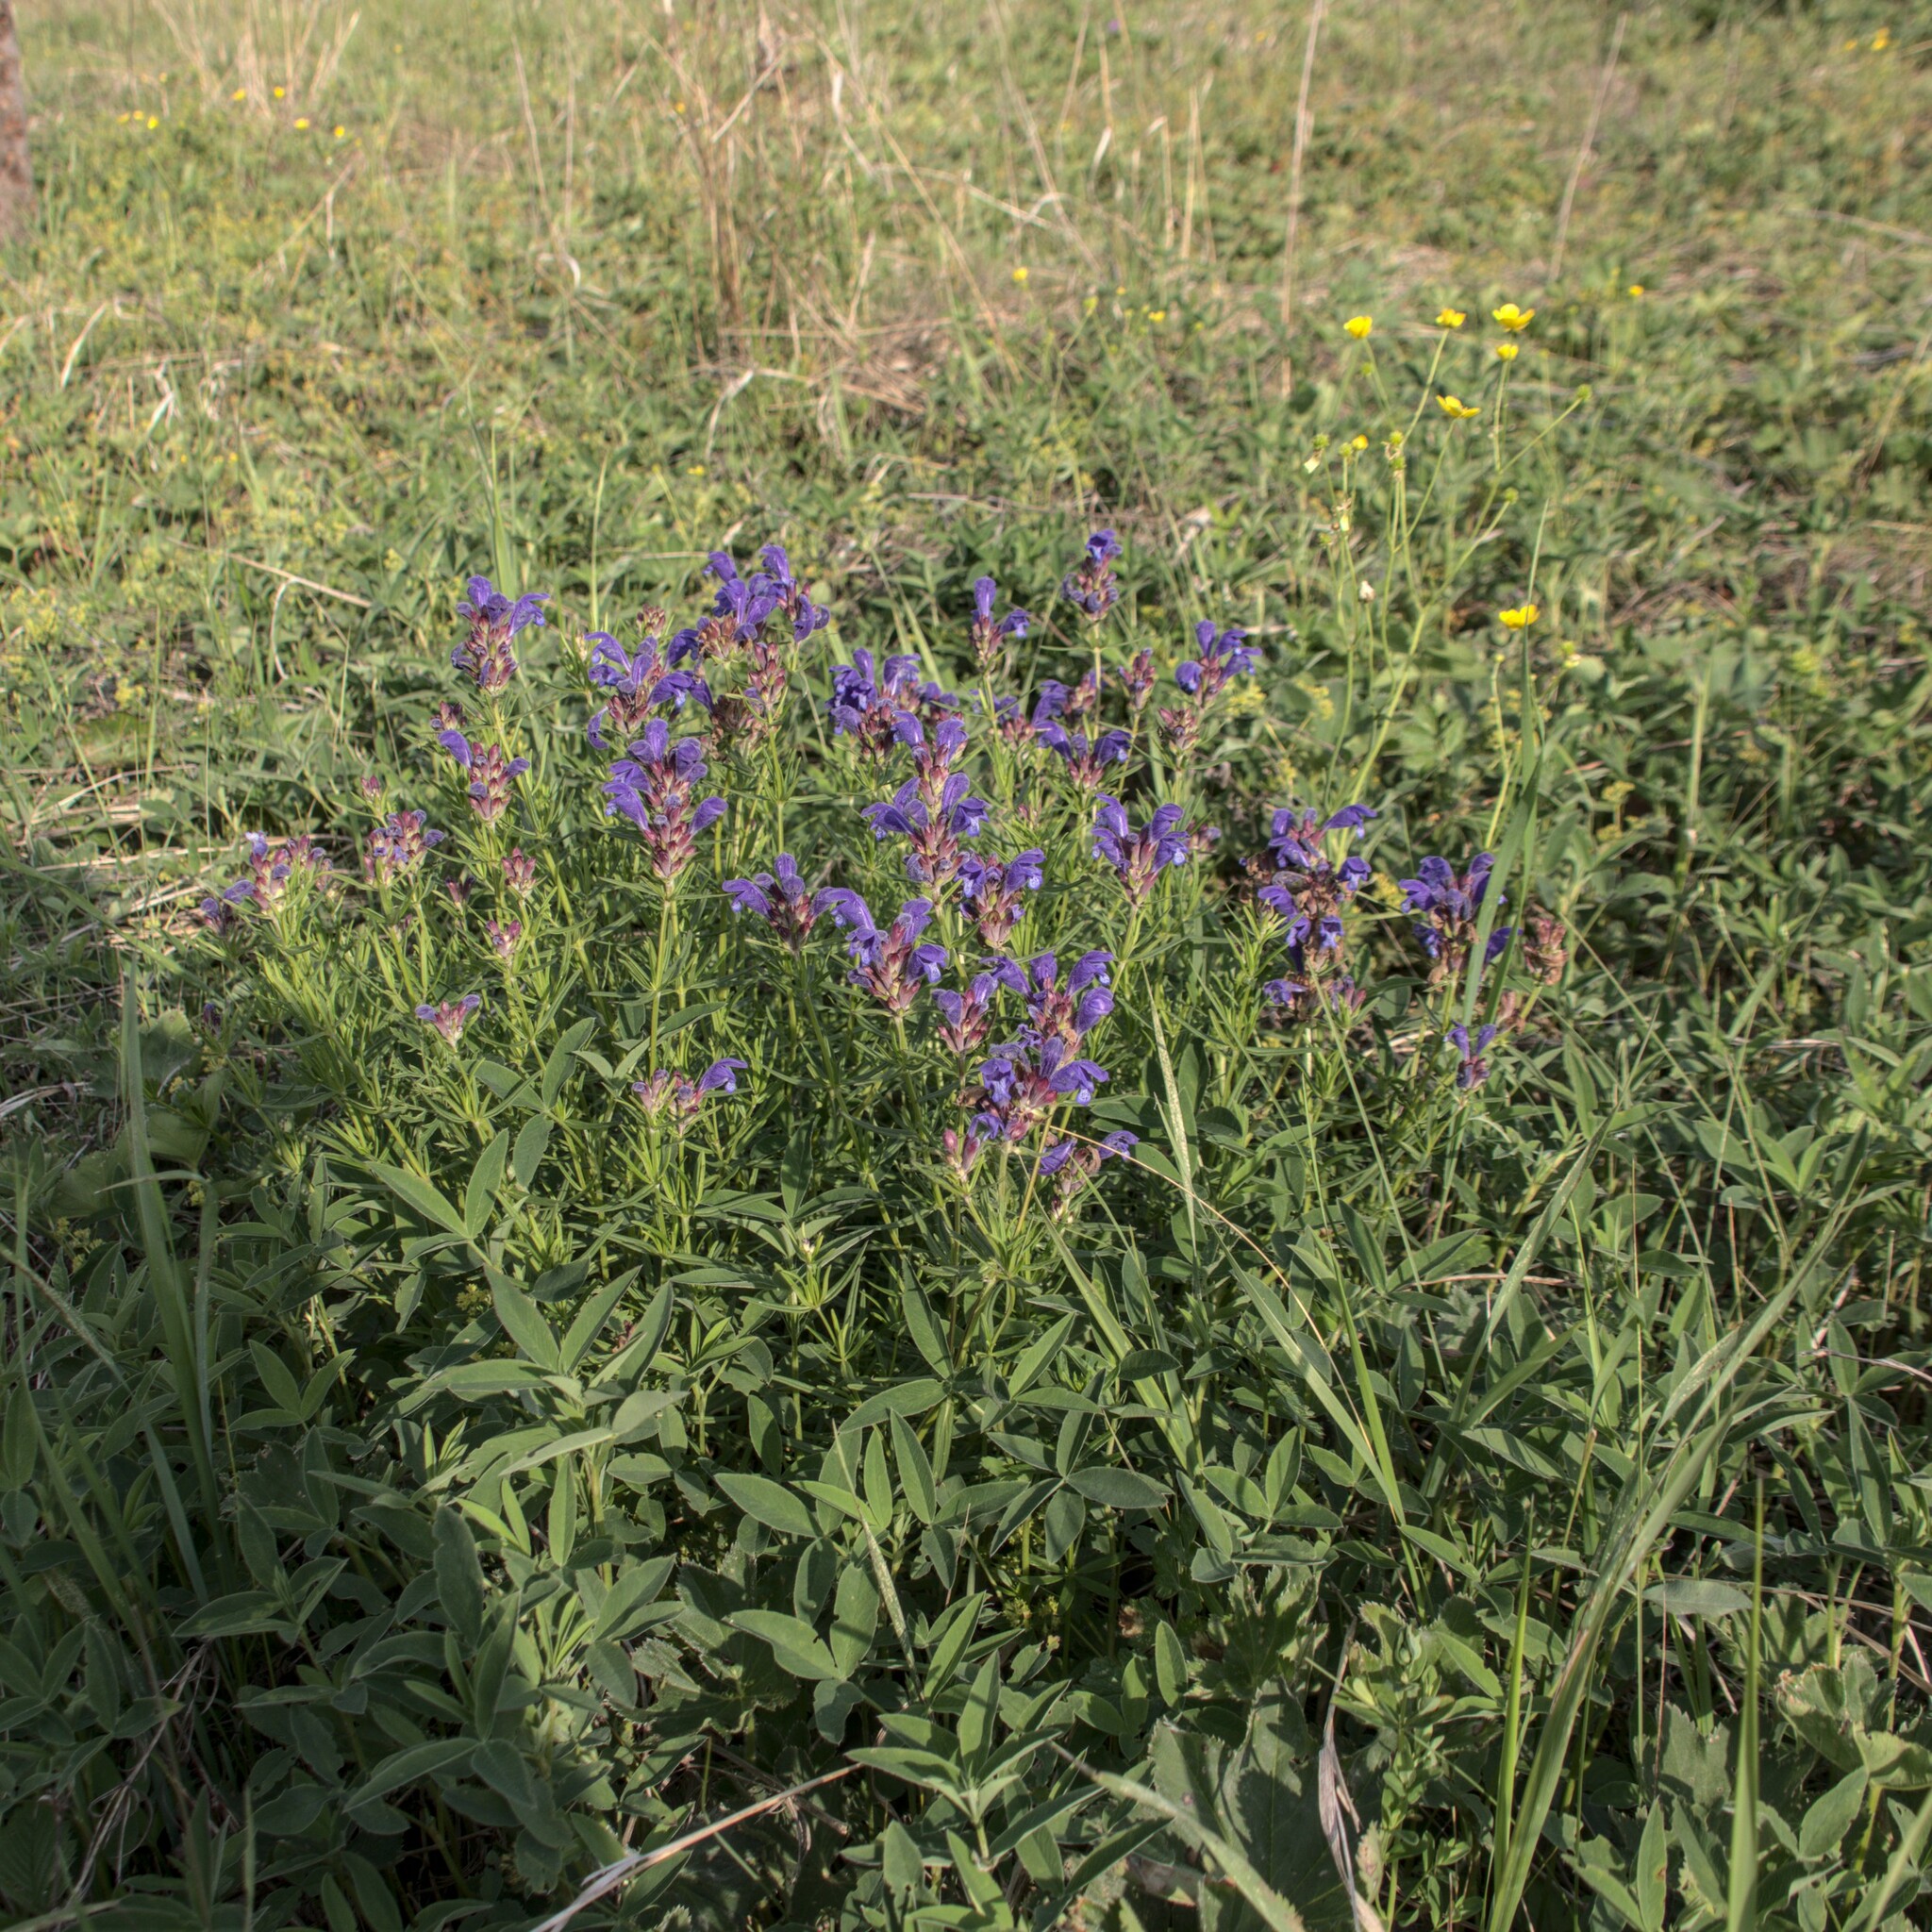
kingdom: Plantae
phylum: Tracheophyta
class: Magnoliopsida
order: Lamiales
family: Lamiaceae
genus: Dracocephalum
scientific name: Dracocephalum ruyschiana
